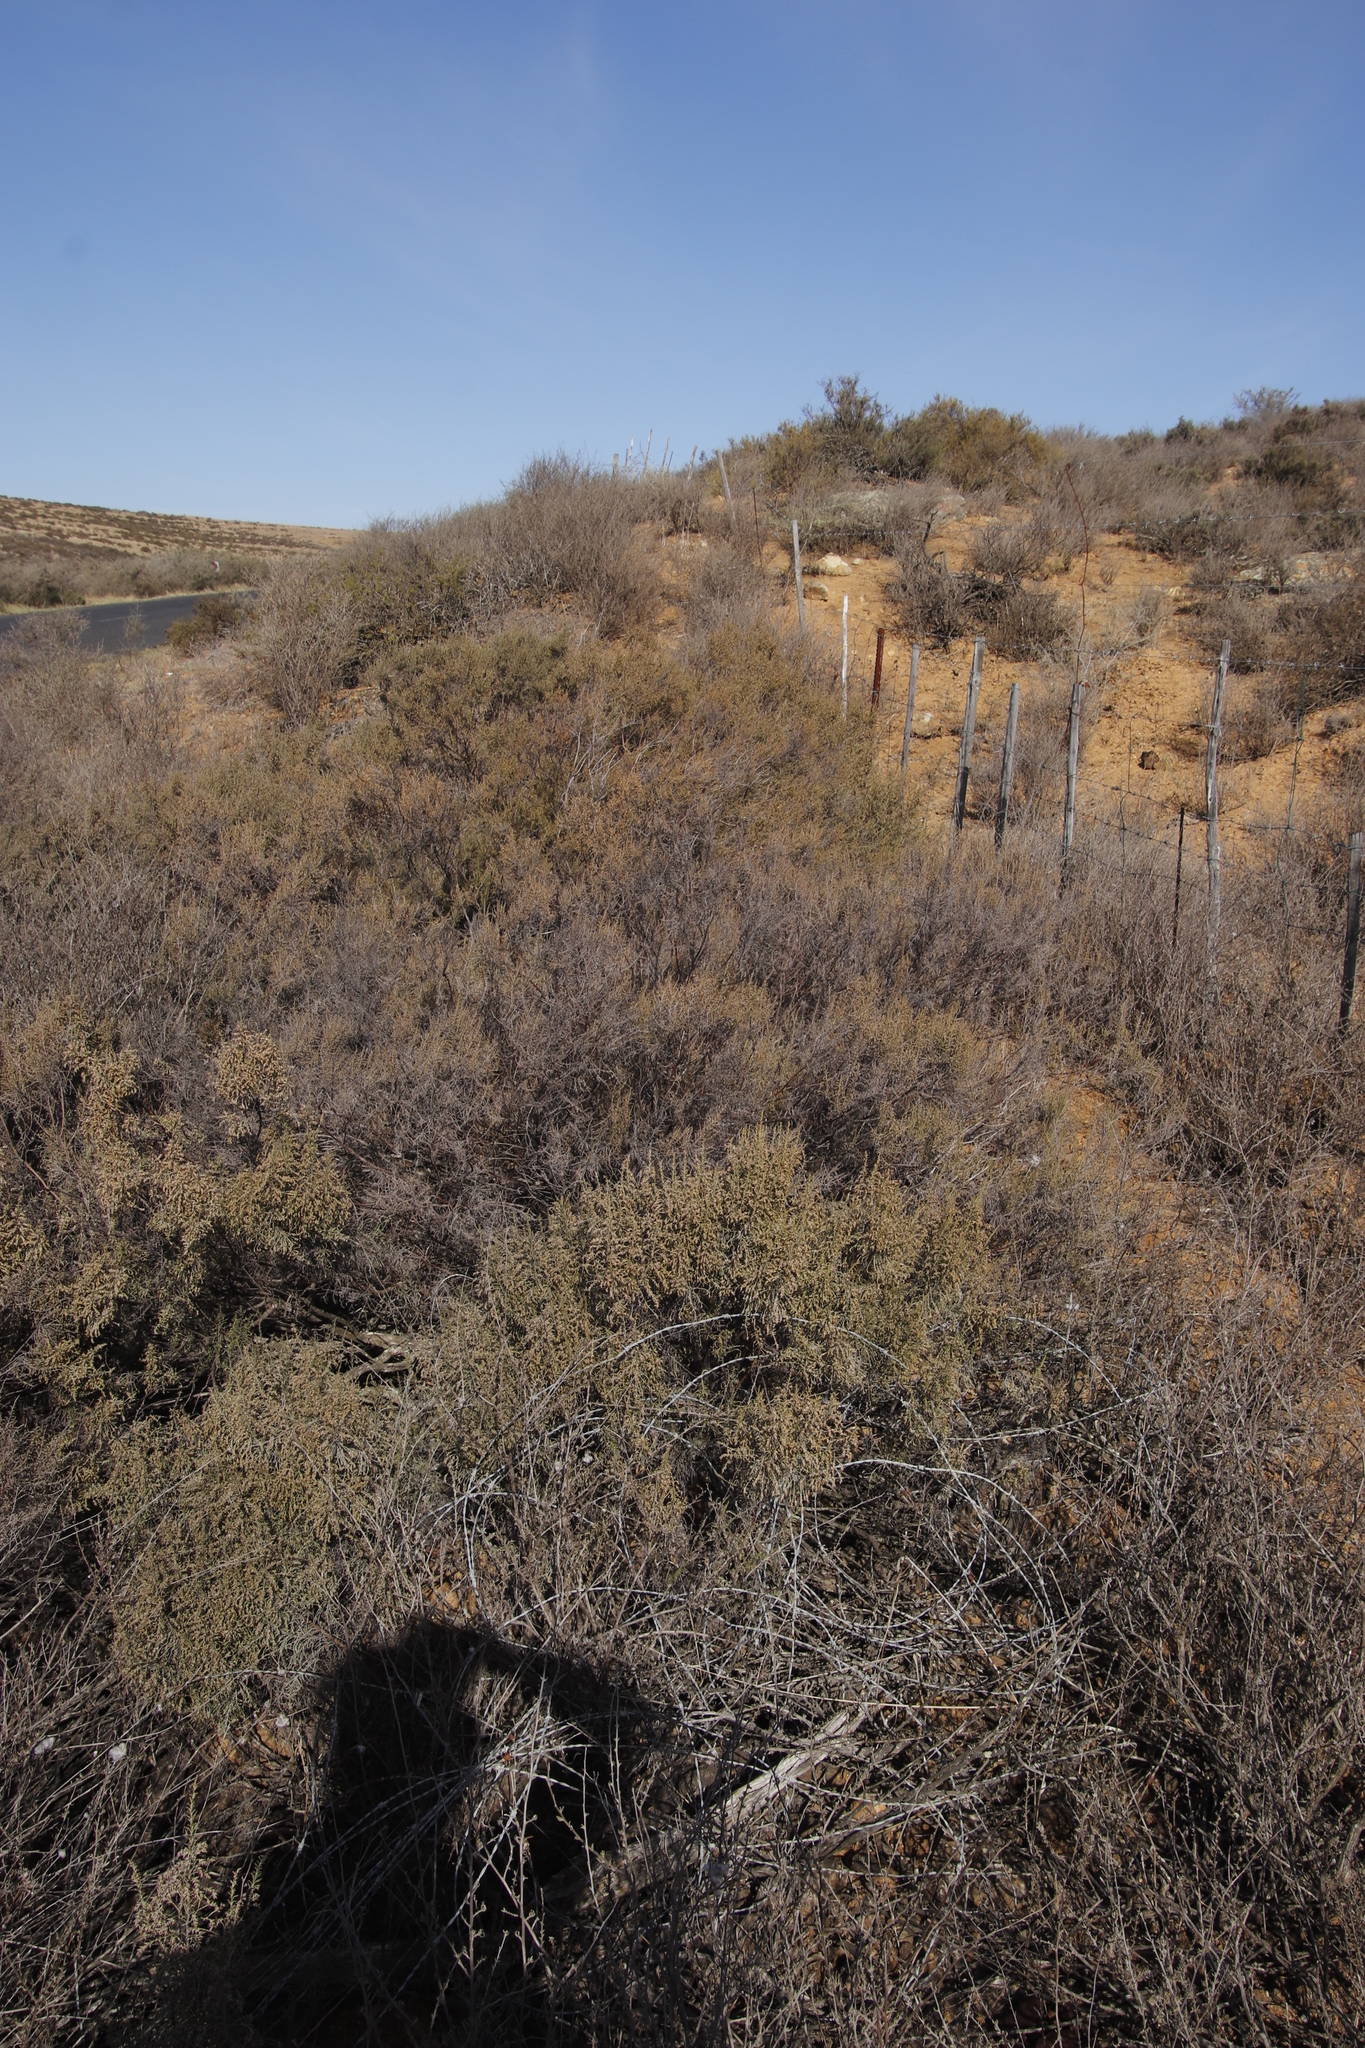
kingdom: Plantae
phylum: Tracheophyta
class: Magnoliopsida
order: Asterales
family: Asteraceae
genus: Dicerothamnus
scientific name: Dicerothamnus rhinocerotis
